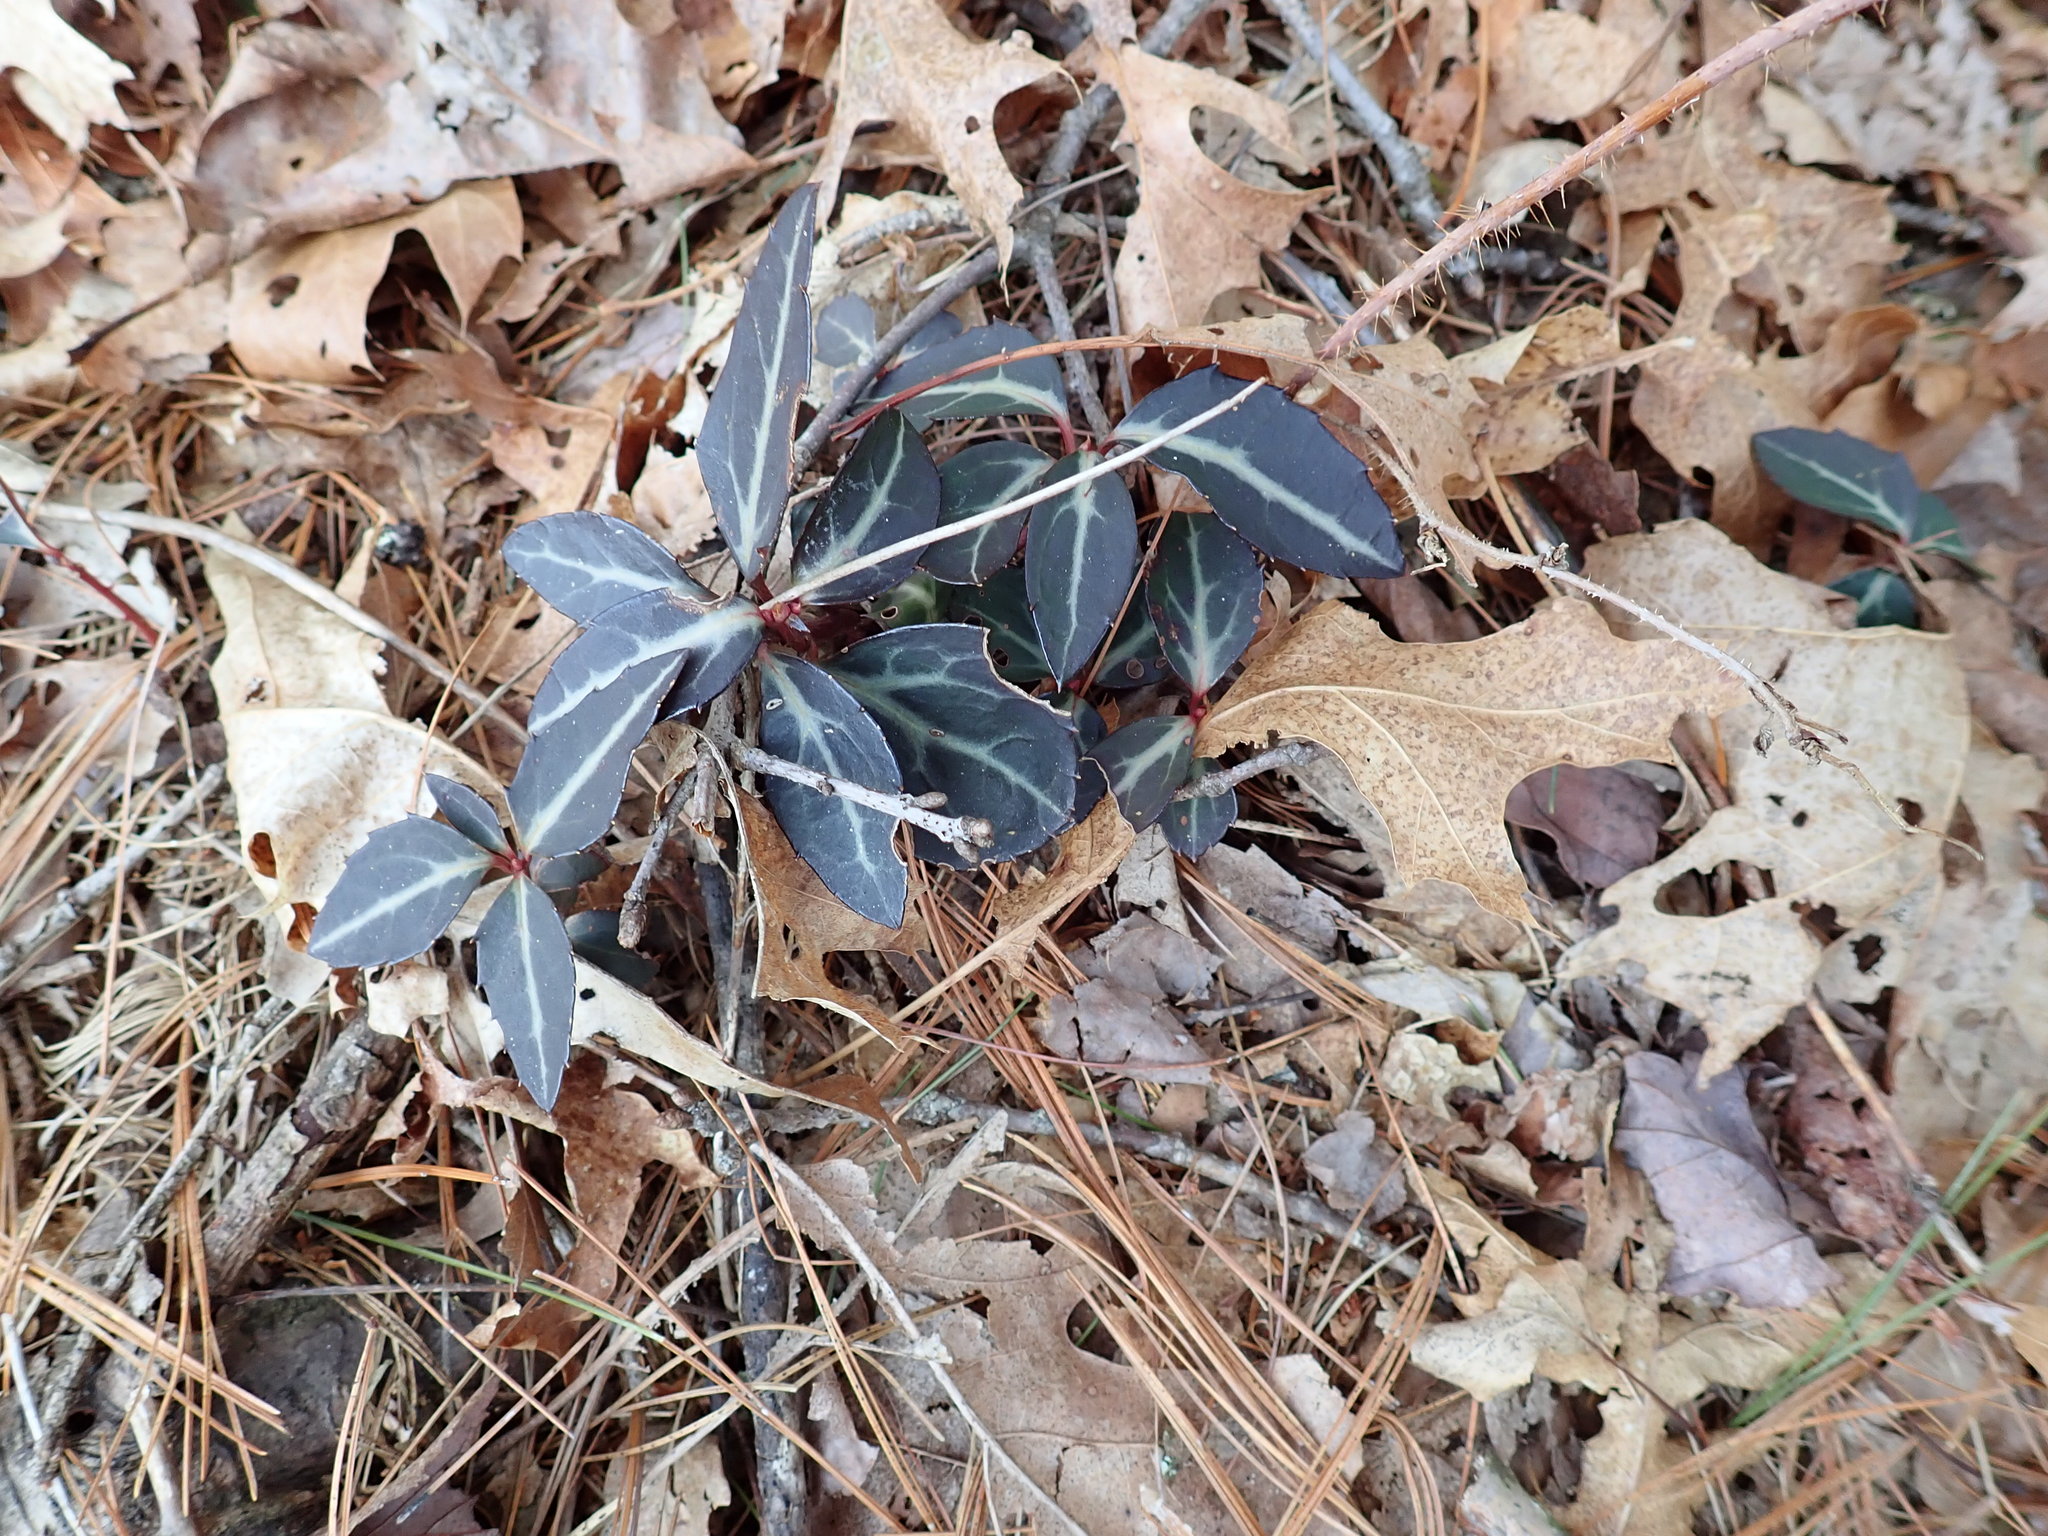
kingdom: Plantae
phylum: Tracheophyta
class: Magnoliopsida
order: Ericales
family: Ericaceae
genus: Chimaphila
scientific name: Chimaphila maculata
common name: Spotted pipsissewa
